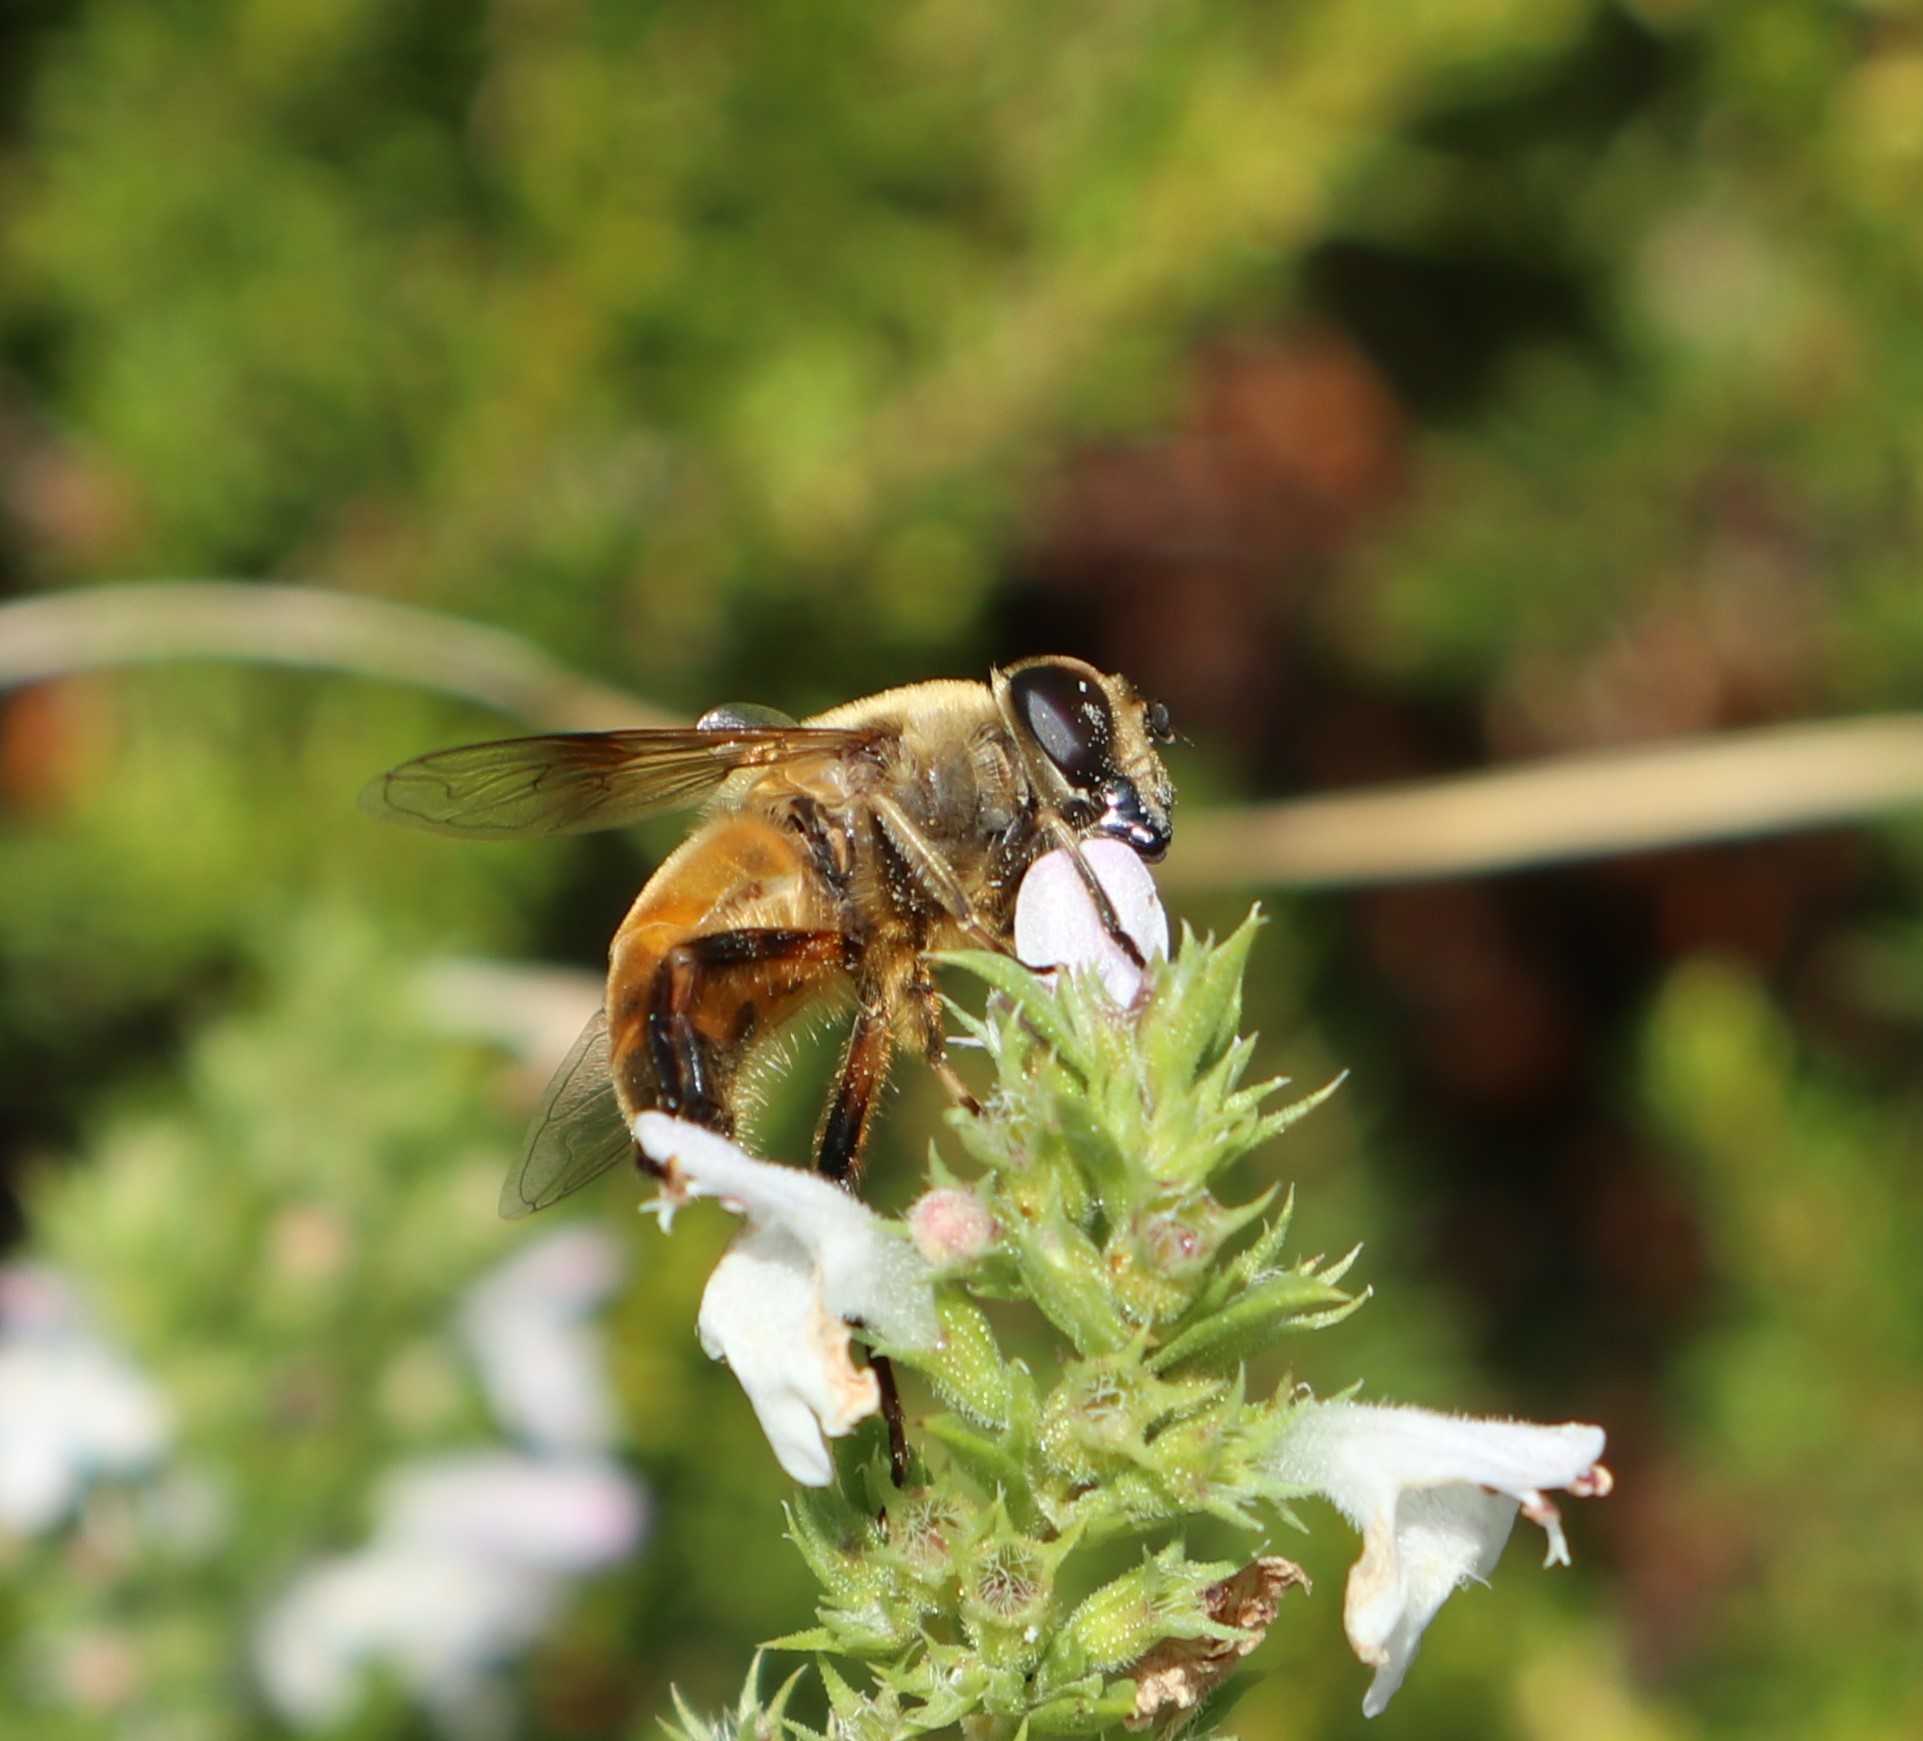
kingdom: Animalia
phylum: Arthropoda
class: Insecta
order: Diptera
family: Syrphidae
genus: Eristalis
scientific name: Eristalis tenax
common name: Drone fly
